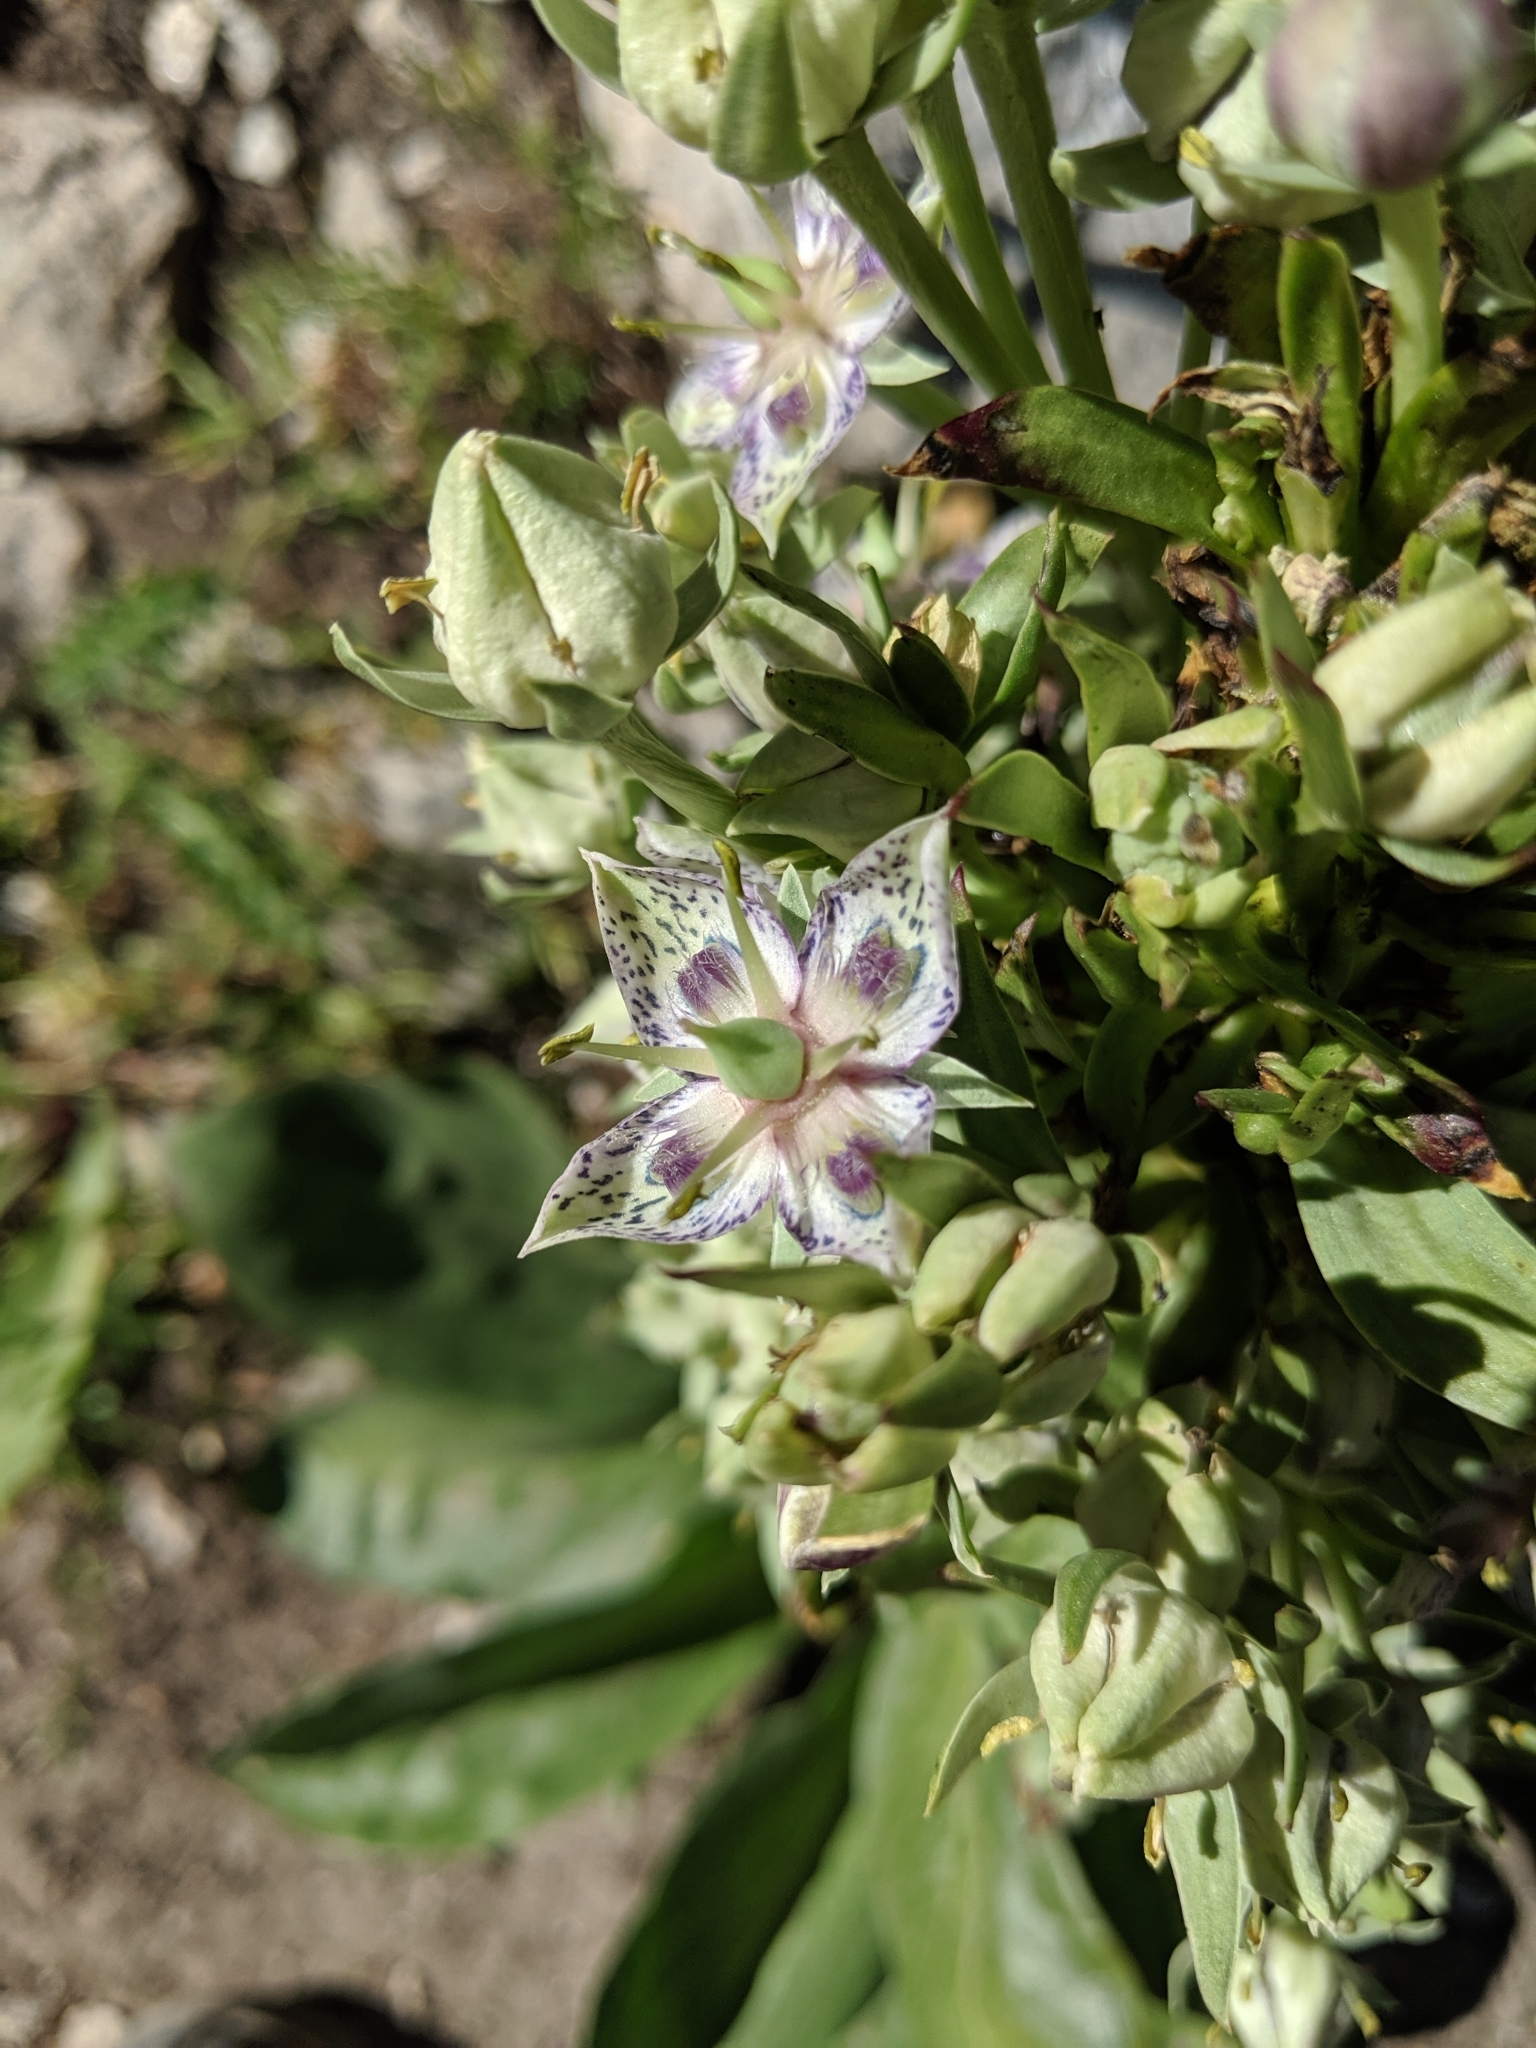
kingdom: Plantae
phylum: Tracheophyta
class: Magnoliopsida
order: Gentianales
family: Gentianaceae
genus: Frasera
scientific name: Frasera speciosa
